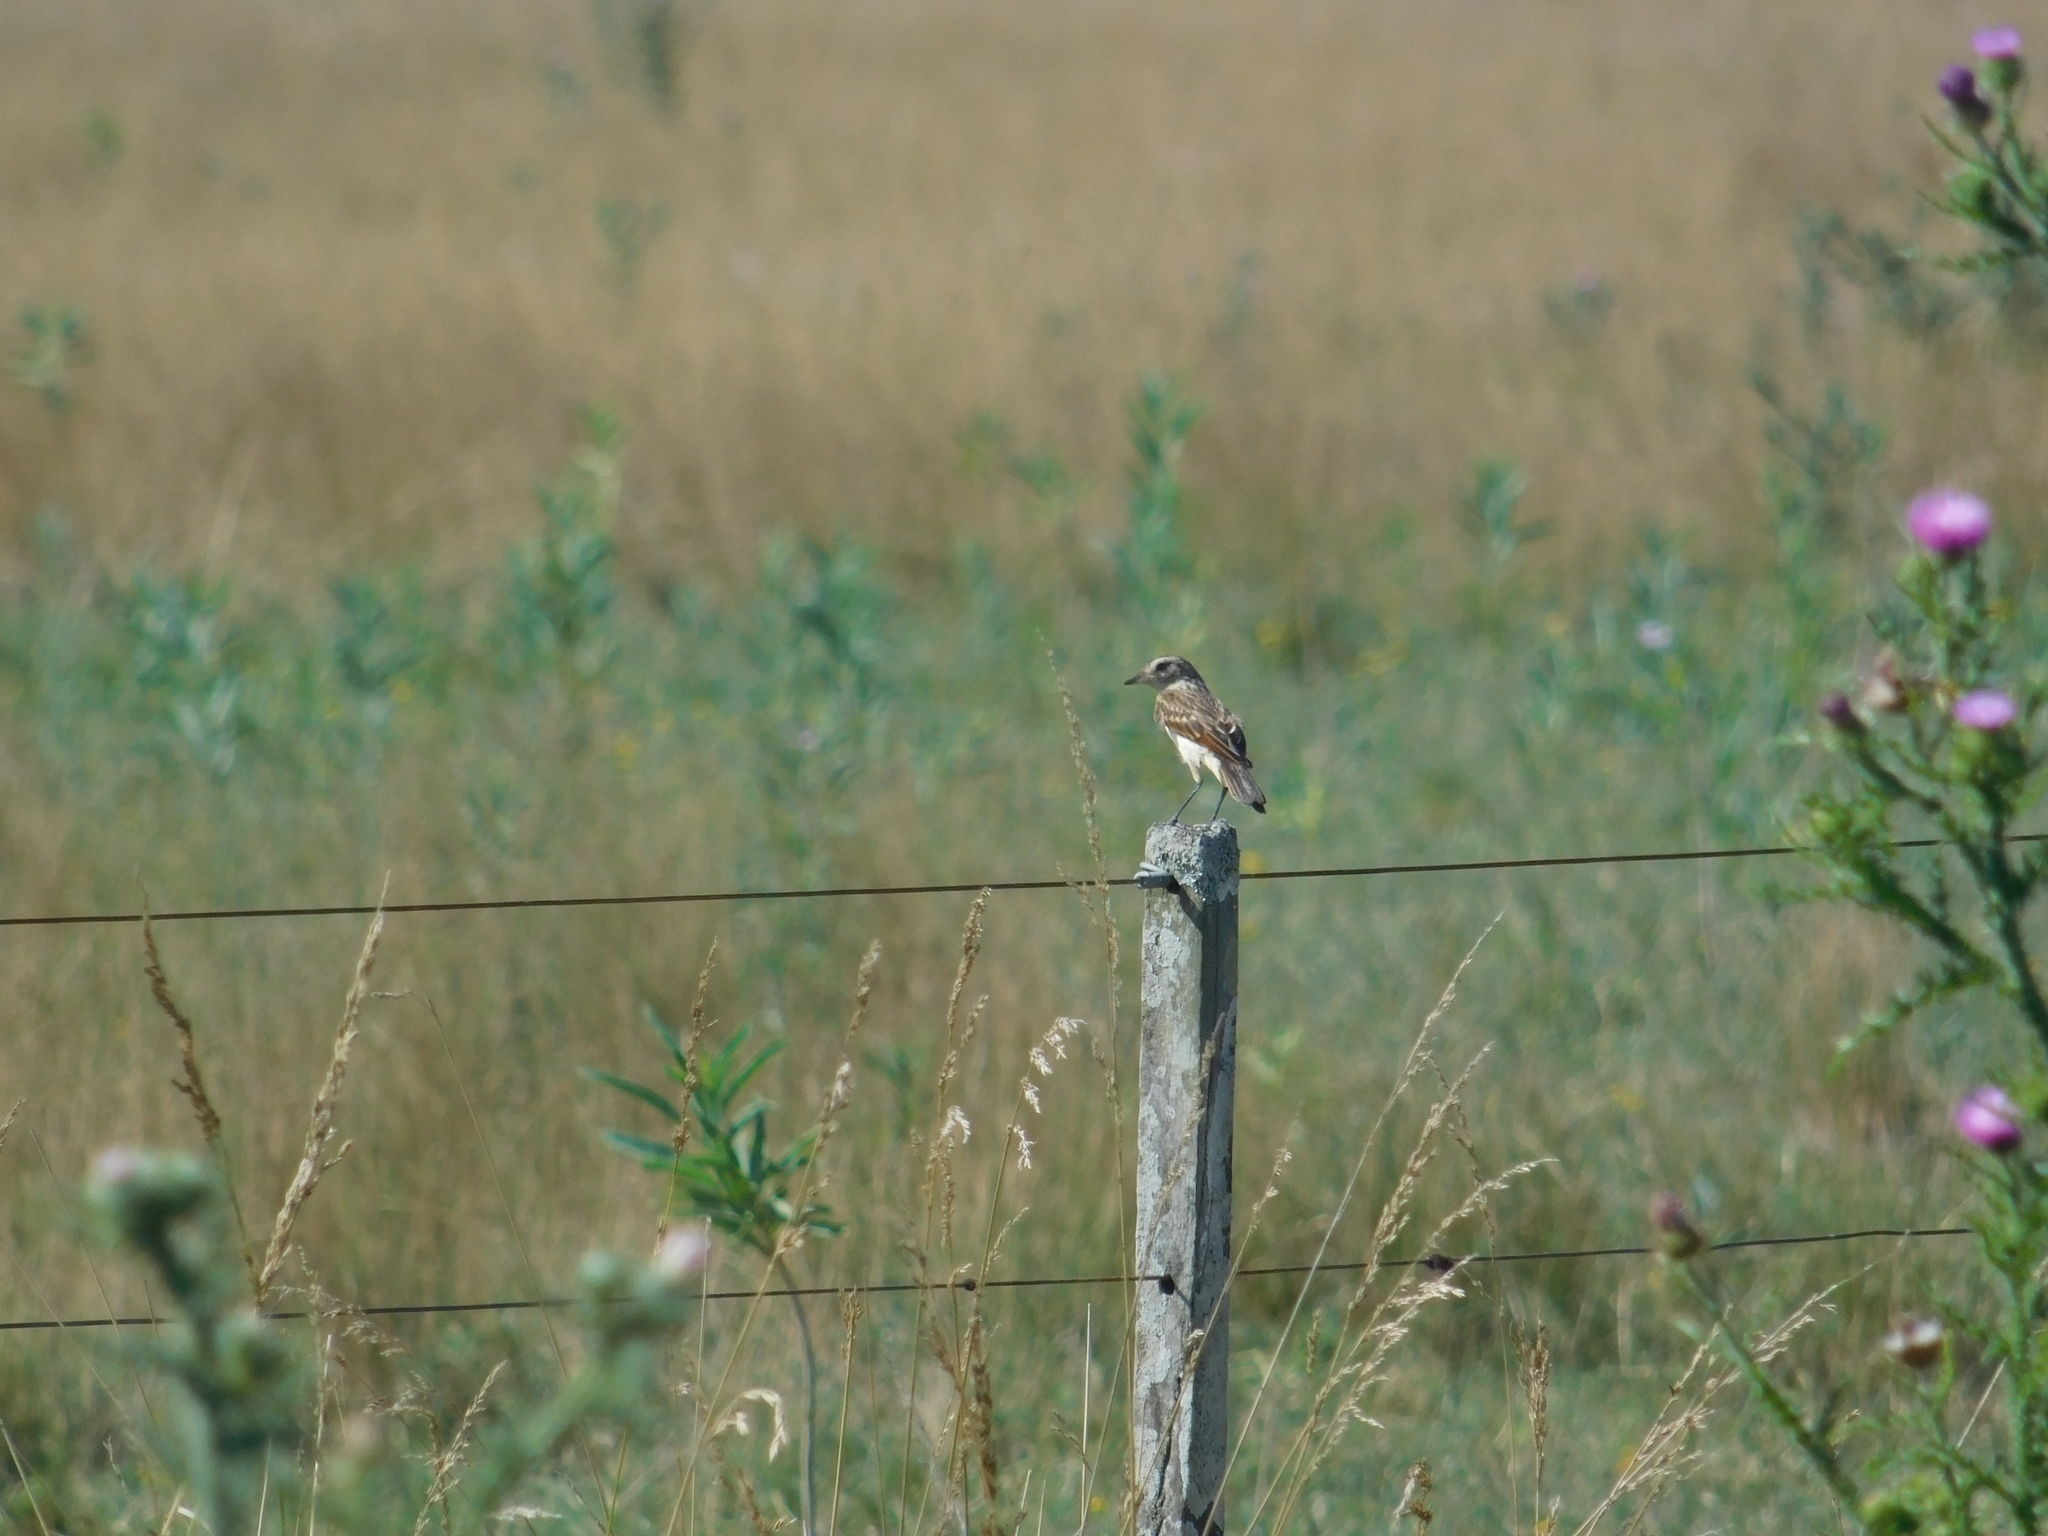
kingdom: Animalia
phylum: Chordata
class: Aves
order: Passeriformes
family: Tyrannidae
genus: Hymenops
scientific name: Hymenops perspicillatus
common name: Spectacled tyrant
